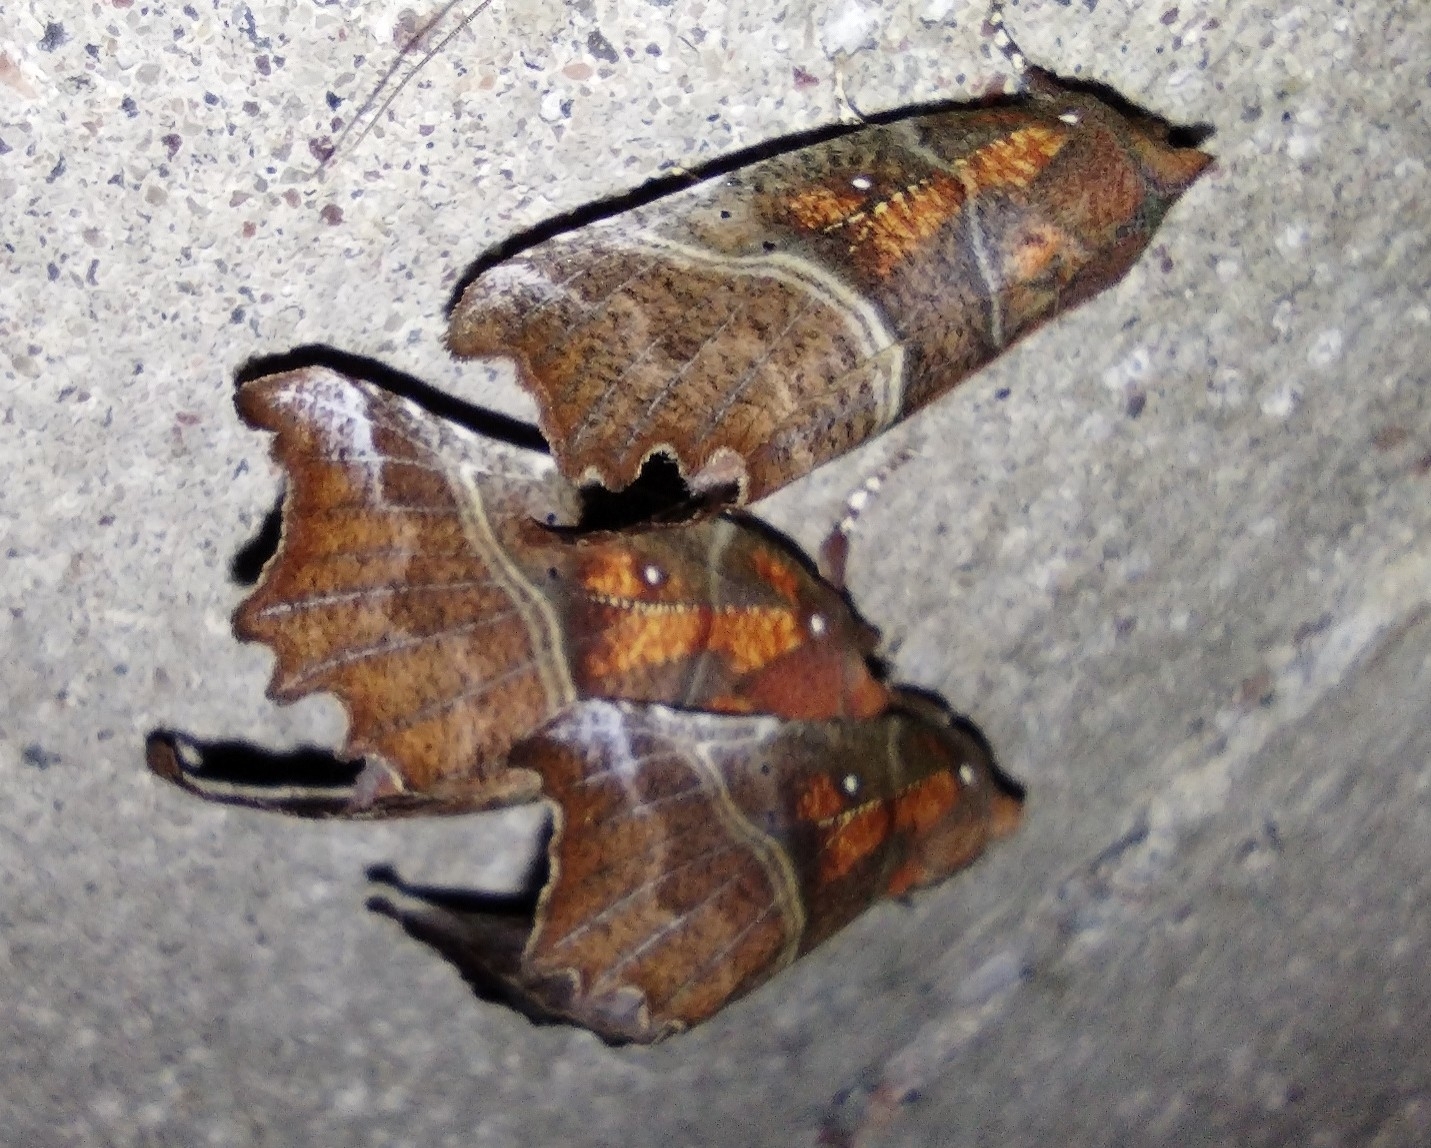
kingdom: Animalia
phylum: Arthropoda
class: Insecta
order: Lepidoptera
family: Erebidae
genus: Scoliopteryx
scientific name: Scoliopteryx libatrix
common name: Herald
